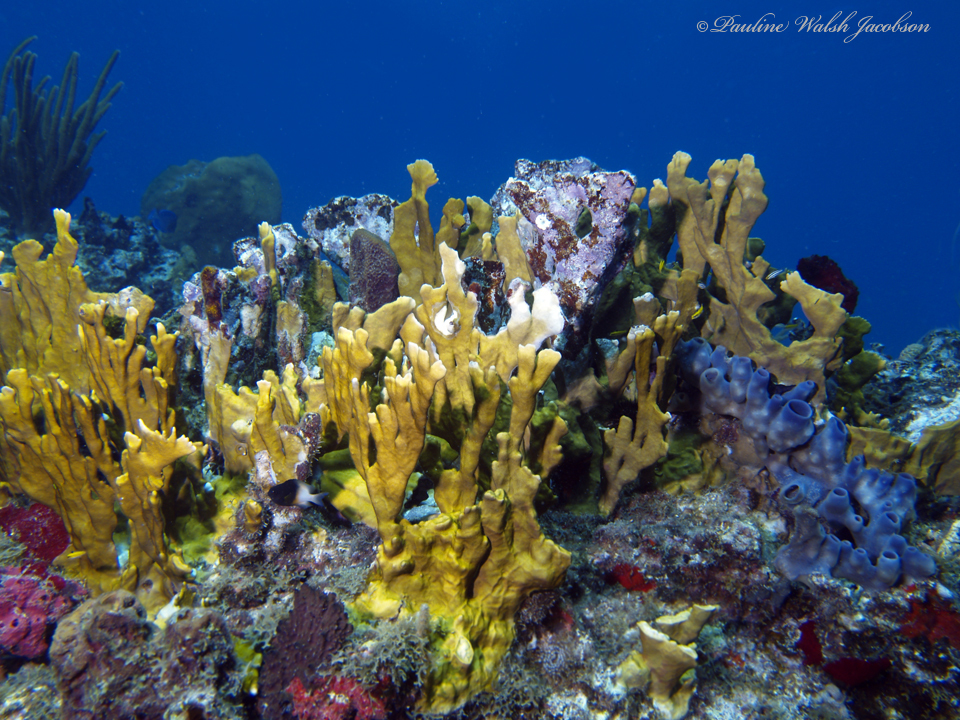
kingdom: Animalia
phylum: Cnidaria
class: Hydrozoa
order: Anthoathecata
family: Milleporidae
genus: Millepora
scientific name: Millepora complanata
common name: Bladed fire coral
